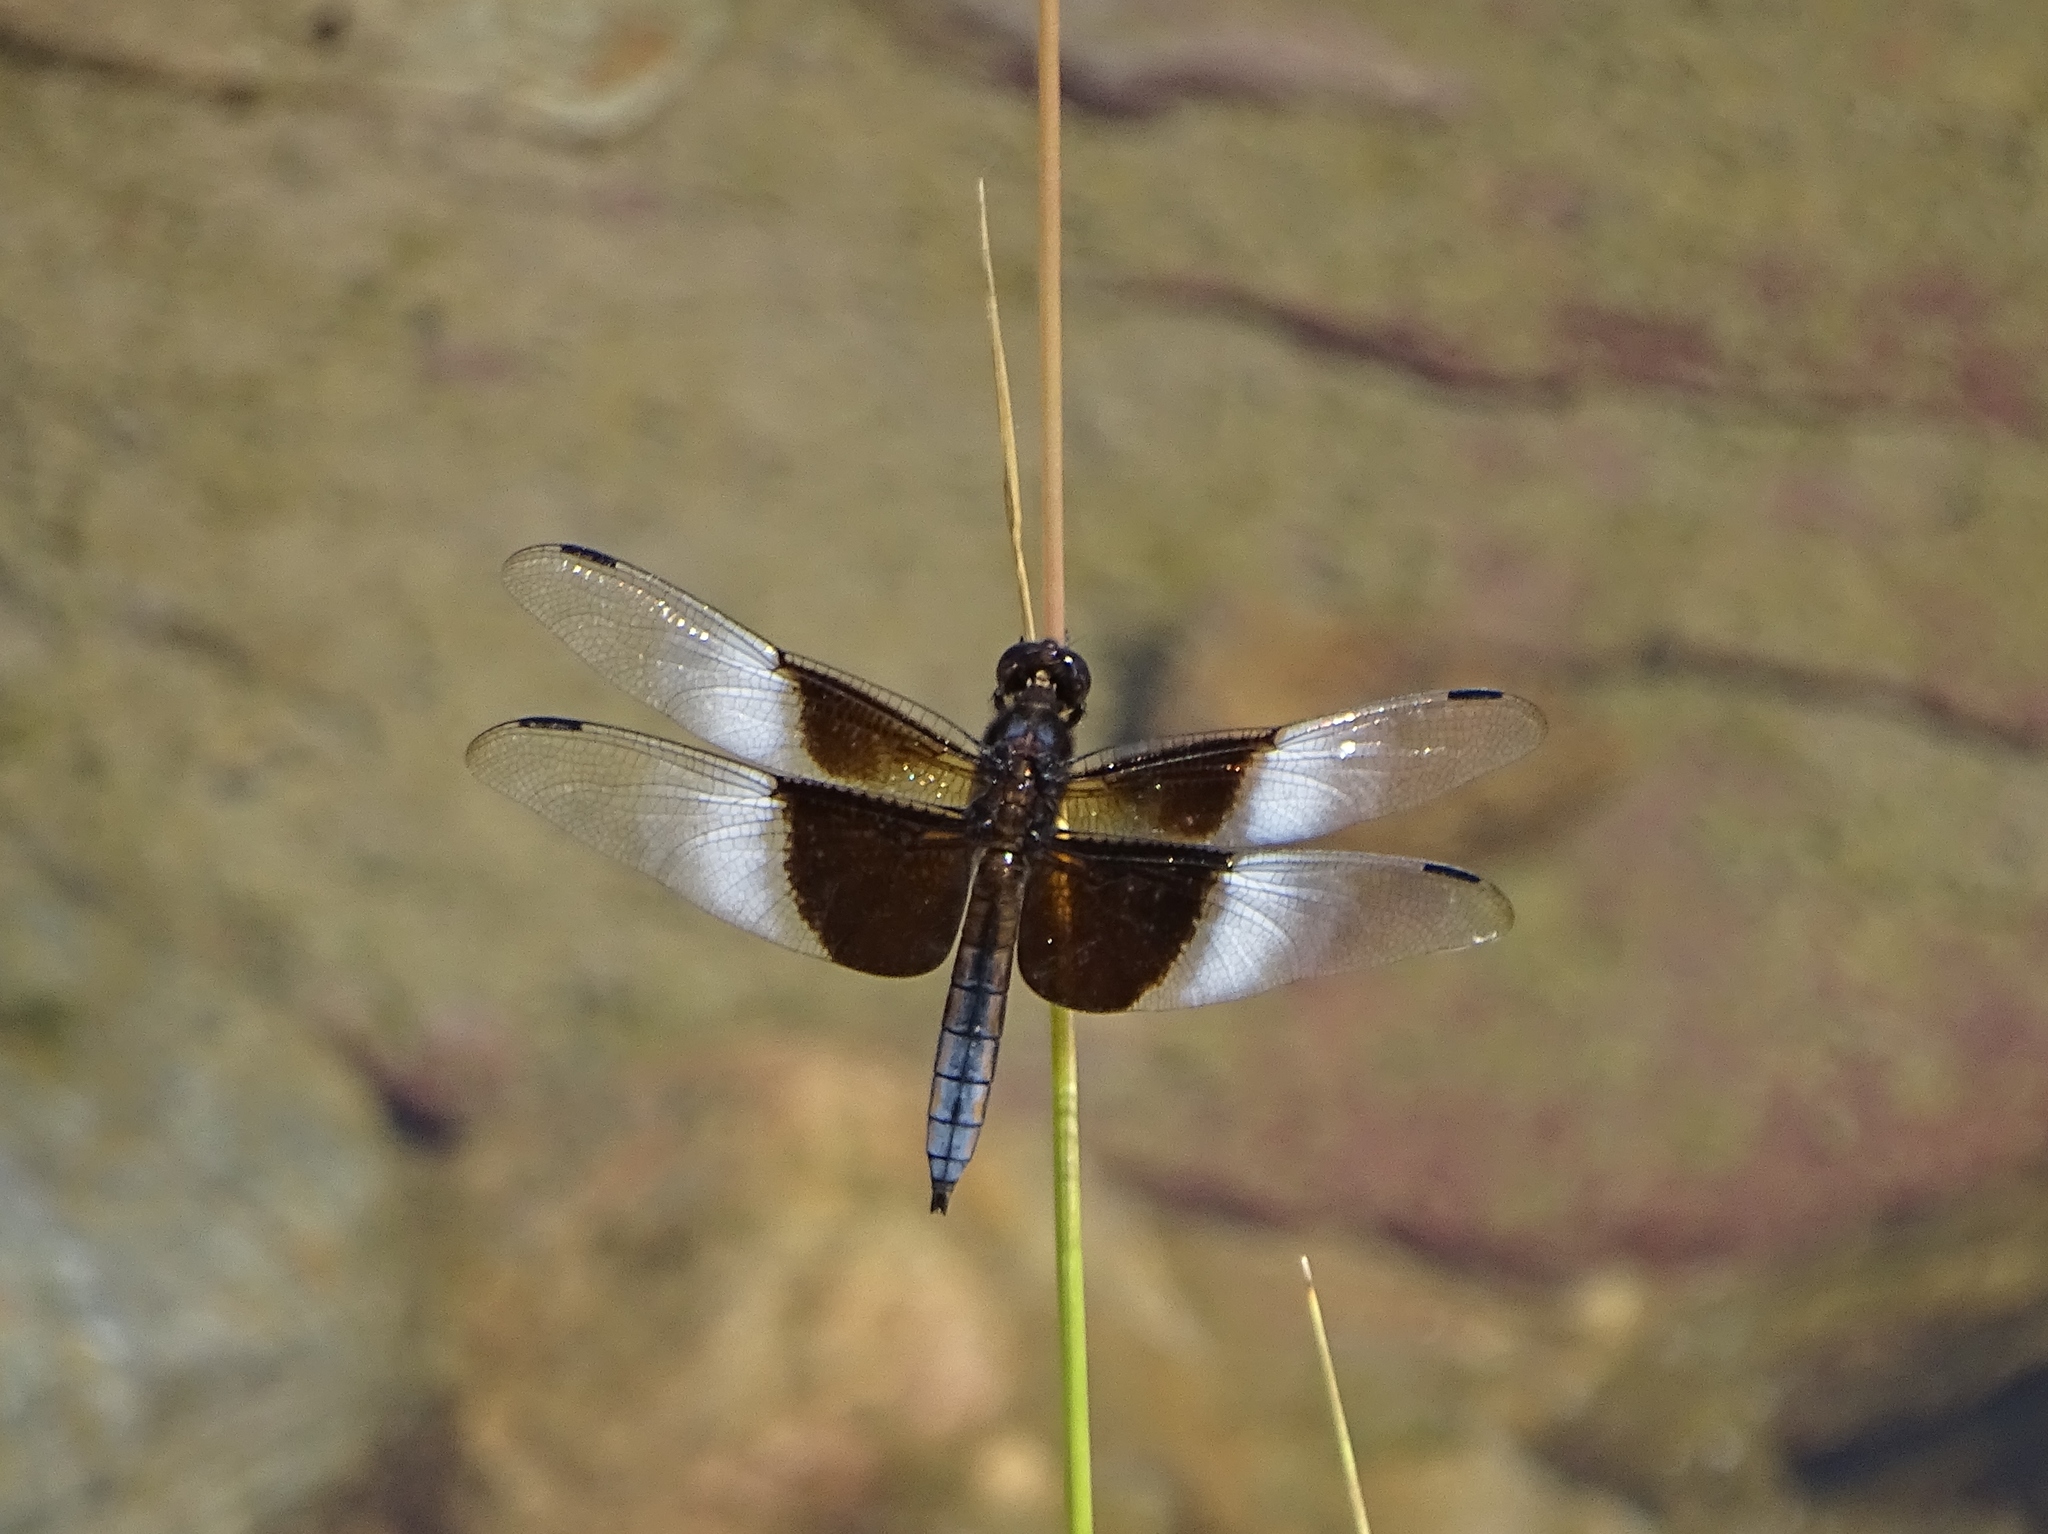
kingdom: Animalia
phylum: Arthropoda
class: Insecta
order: Odonata
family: Libellulidae
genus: Libellula
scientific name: Libellula luctuosa
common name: Widow skimmer
